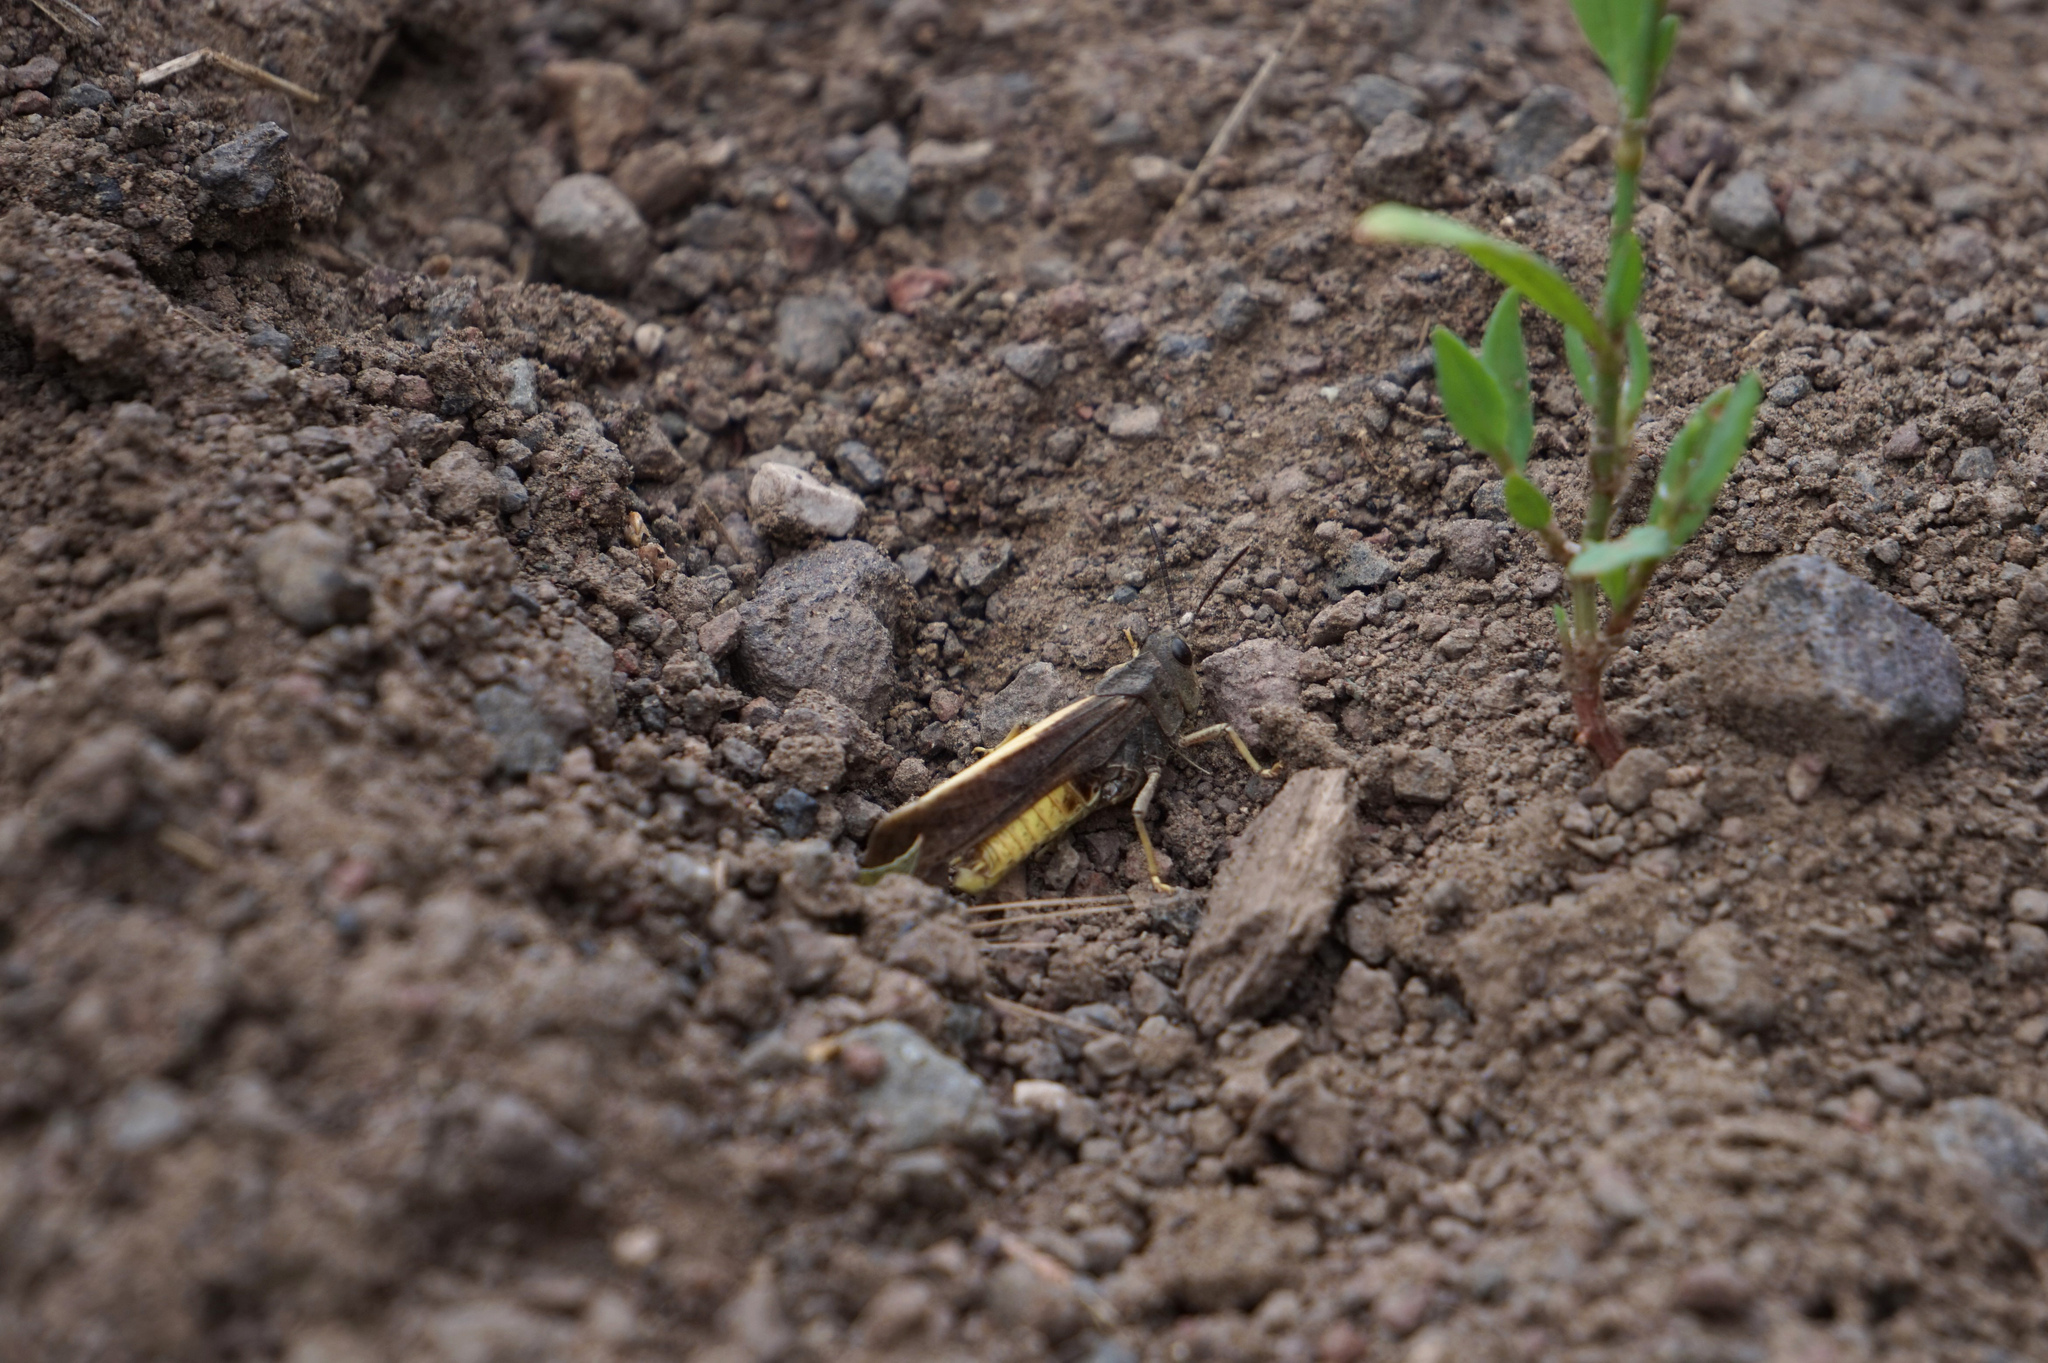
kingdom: Animalia
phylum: Arthropoda
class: Insecta
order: Orthoptera
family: Acrididae
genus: Arphia
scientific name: Arphia conspersa
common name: Speckle-winged rangeland grasshopper
